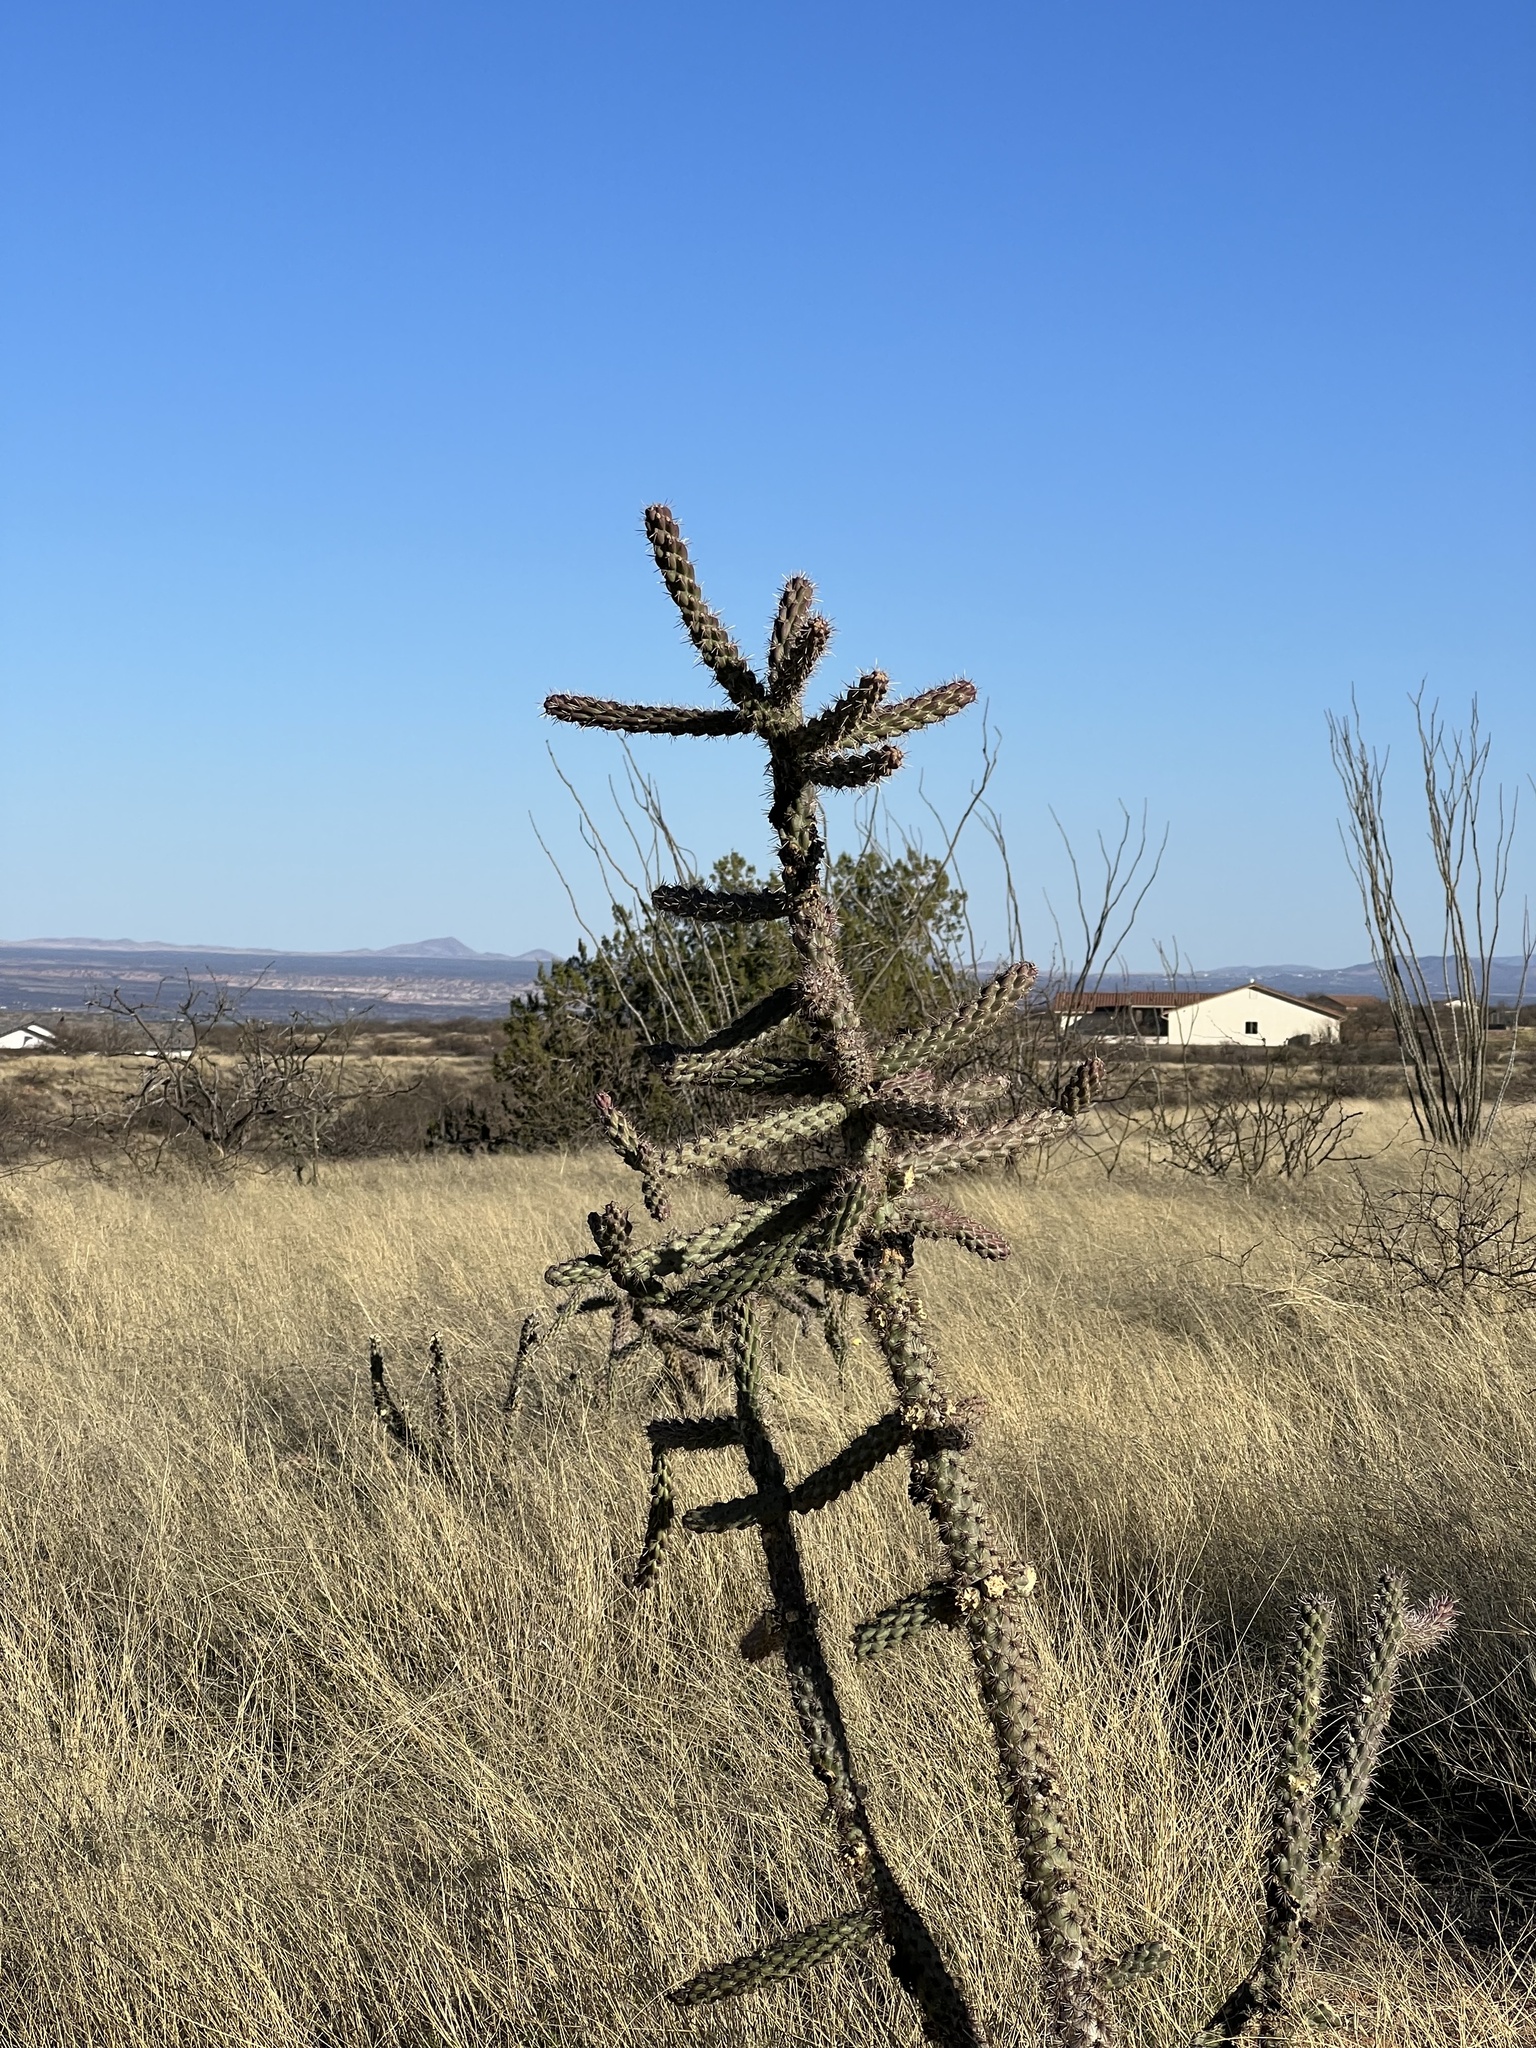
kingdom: Plantae
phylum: Tracheophyta
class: Magnoliopsida
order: Caryophyllales
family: Cactaceae
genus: Cylindropuntia
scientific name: Cylindropuntia imbricata
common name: Candelabrum cactus
